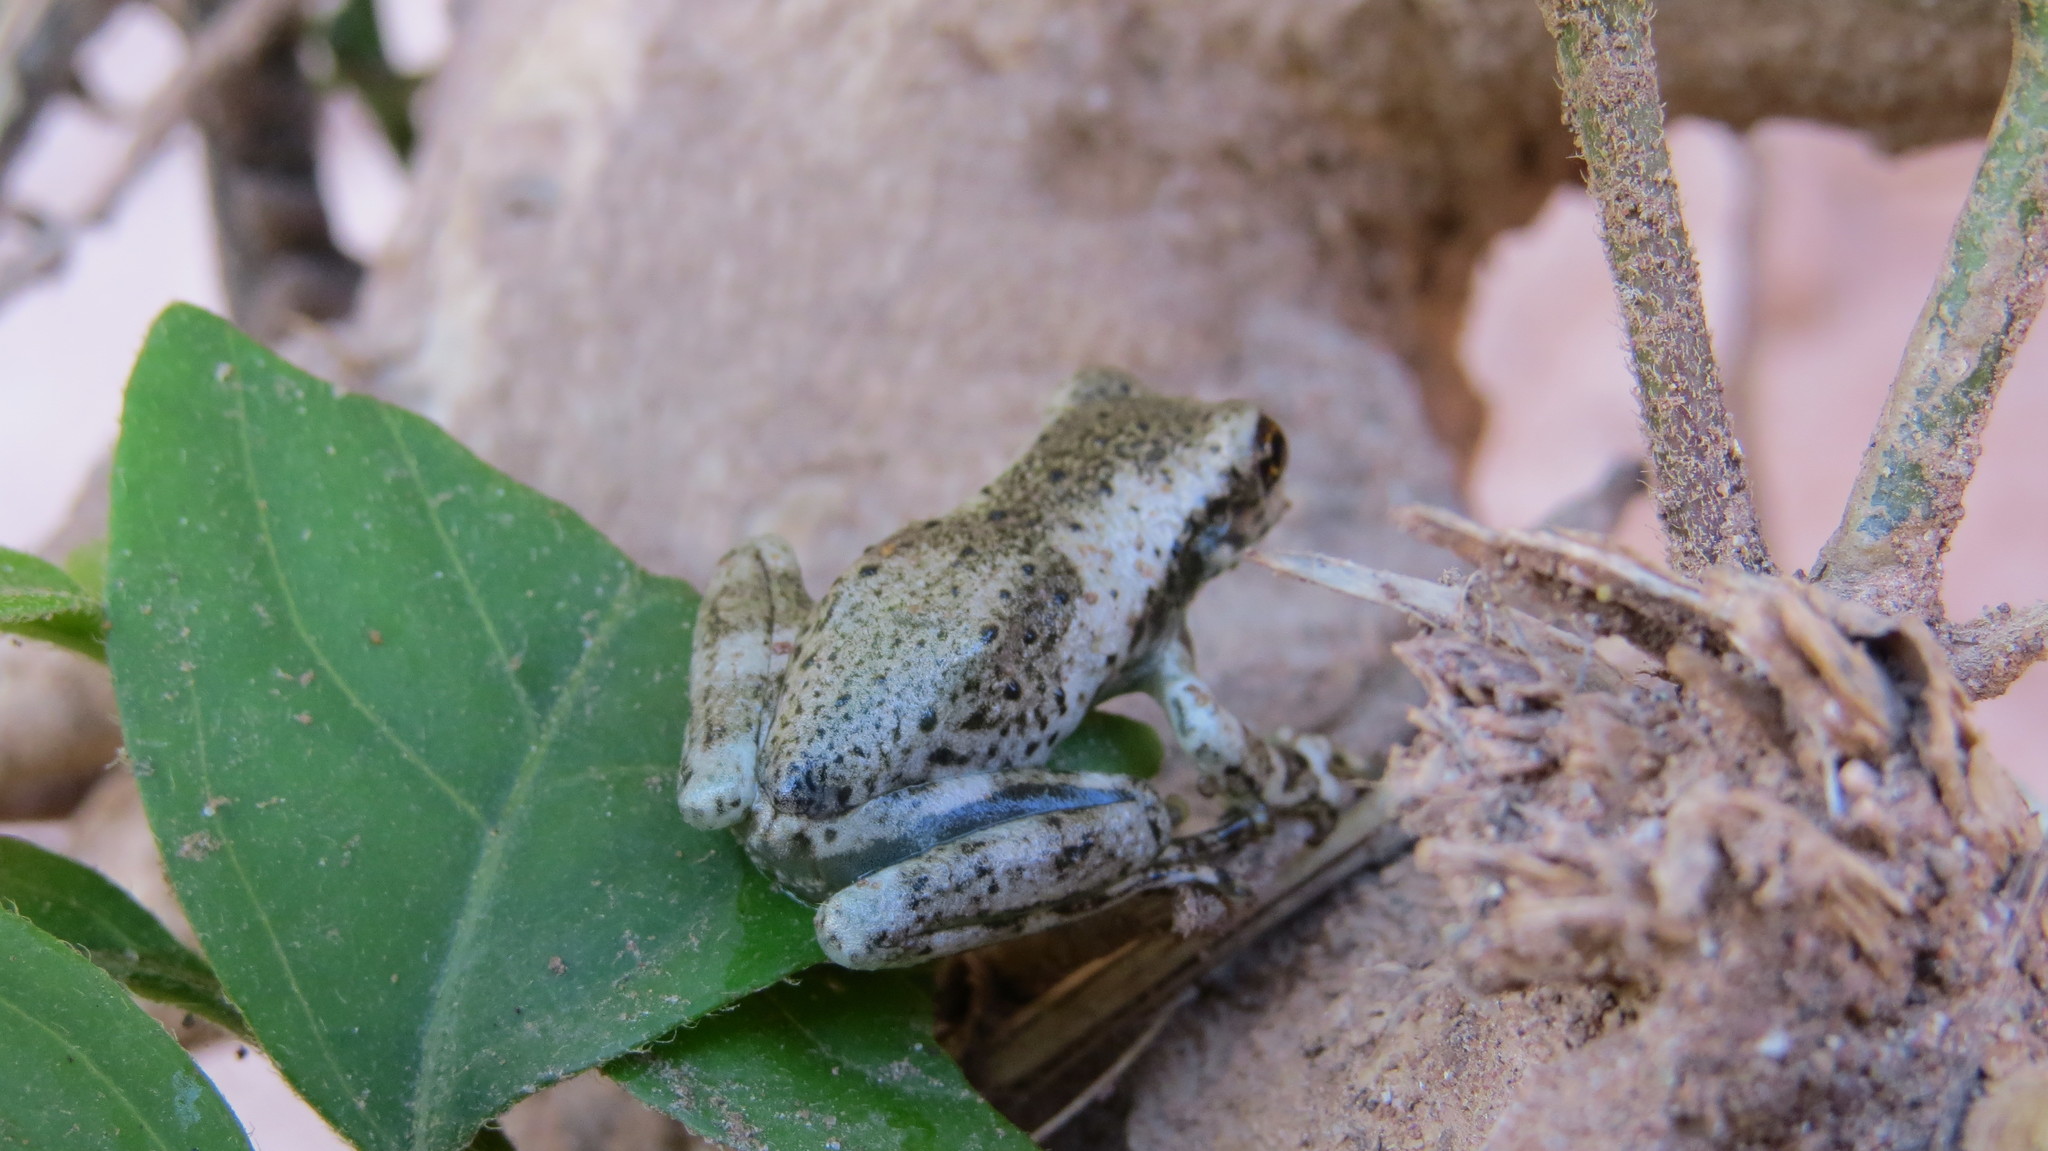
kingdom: Animalia
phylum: Chordata
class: Amphibia
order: Anura
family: Hylidae
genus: Trachycephalus
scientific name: Trachycephalus typhonius
